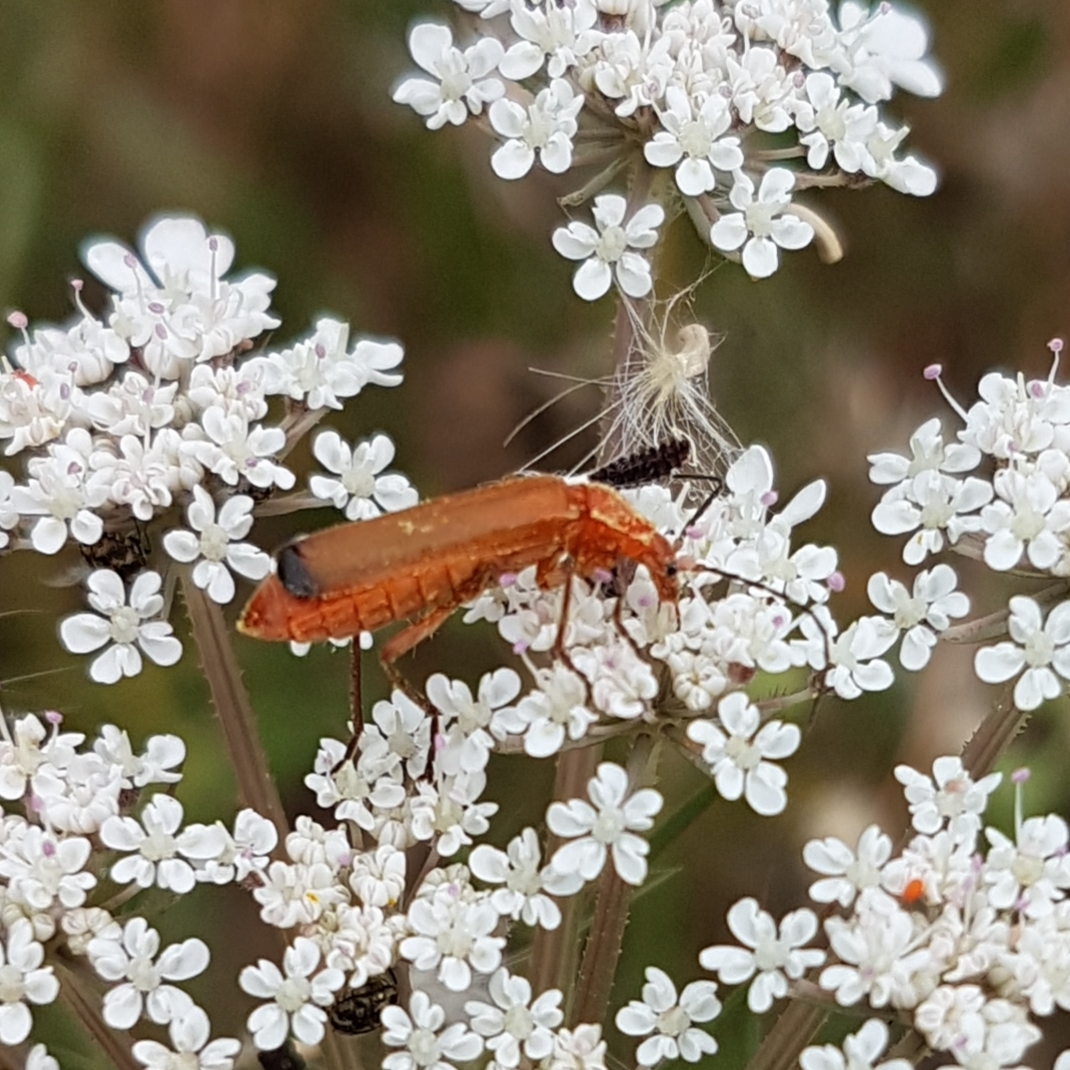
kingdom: Animalia
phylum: Arthropoda
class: Insecta
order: Coleoptera
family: Cantharidae
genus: Rhagonycha
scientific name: Rhagonycha fulva
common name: Common red soldier beetle
